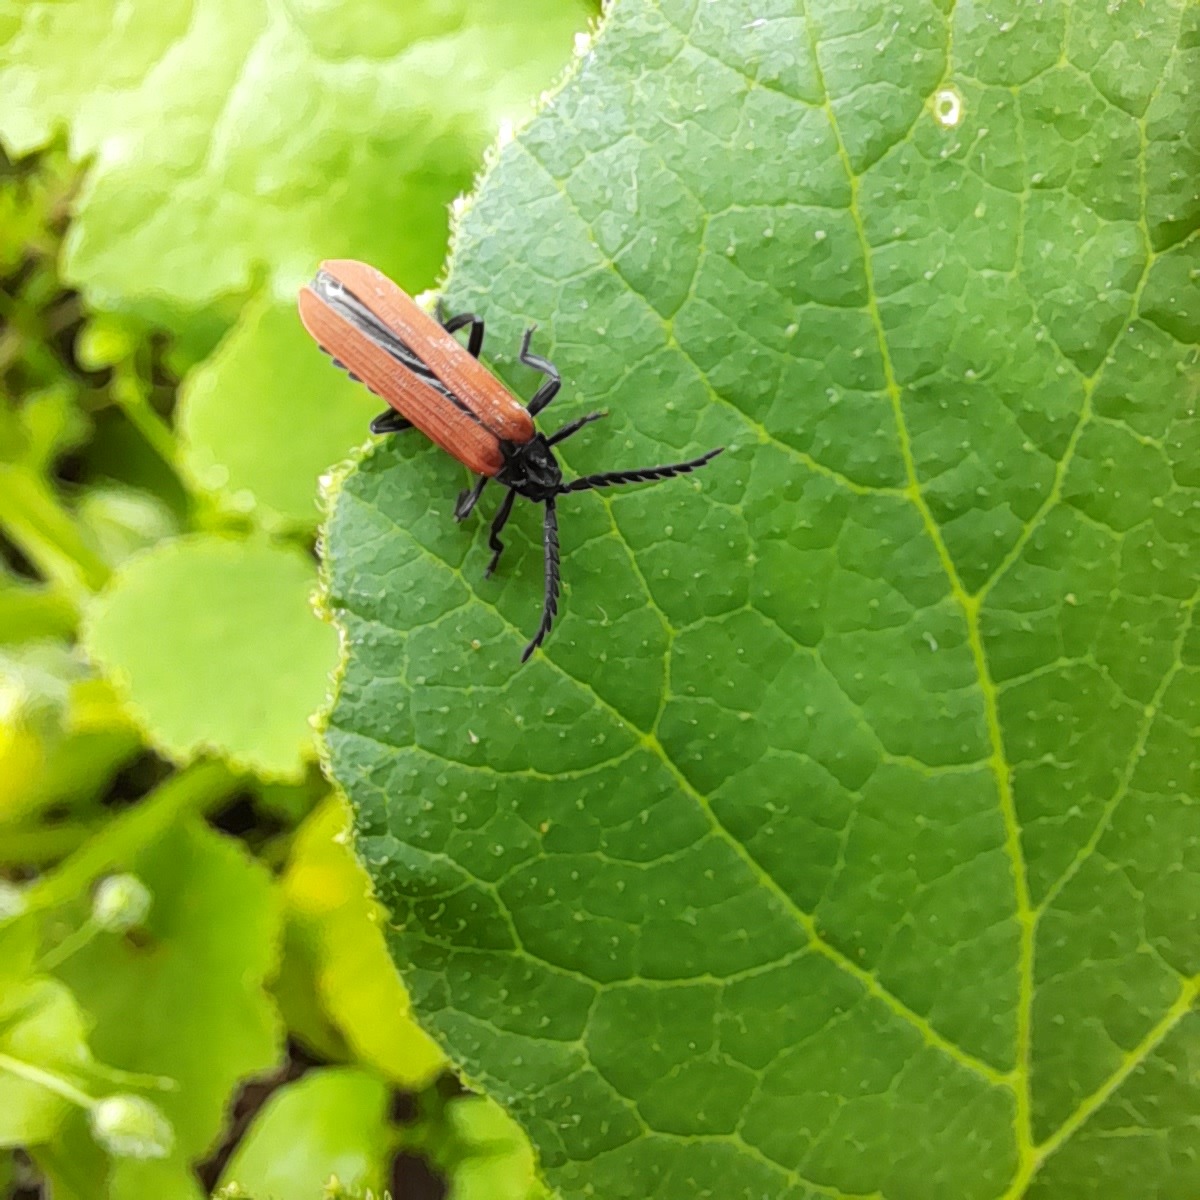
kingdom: Animalia
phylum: Arthropoda
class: Insecta
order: Coleoptera
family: Lycidae
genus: Porrostoma
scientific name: Porrostoma rufipenne
